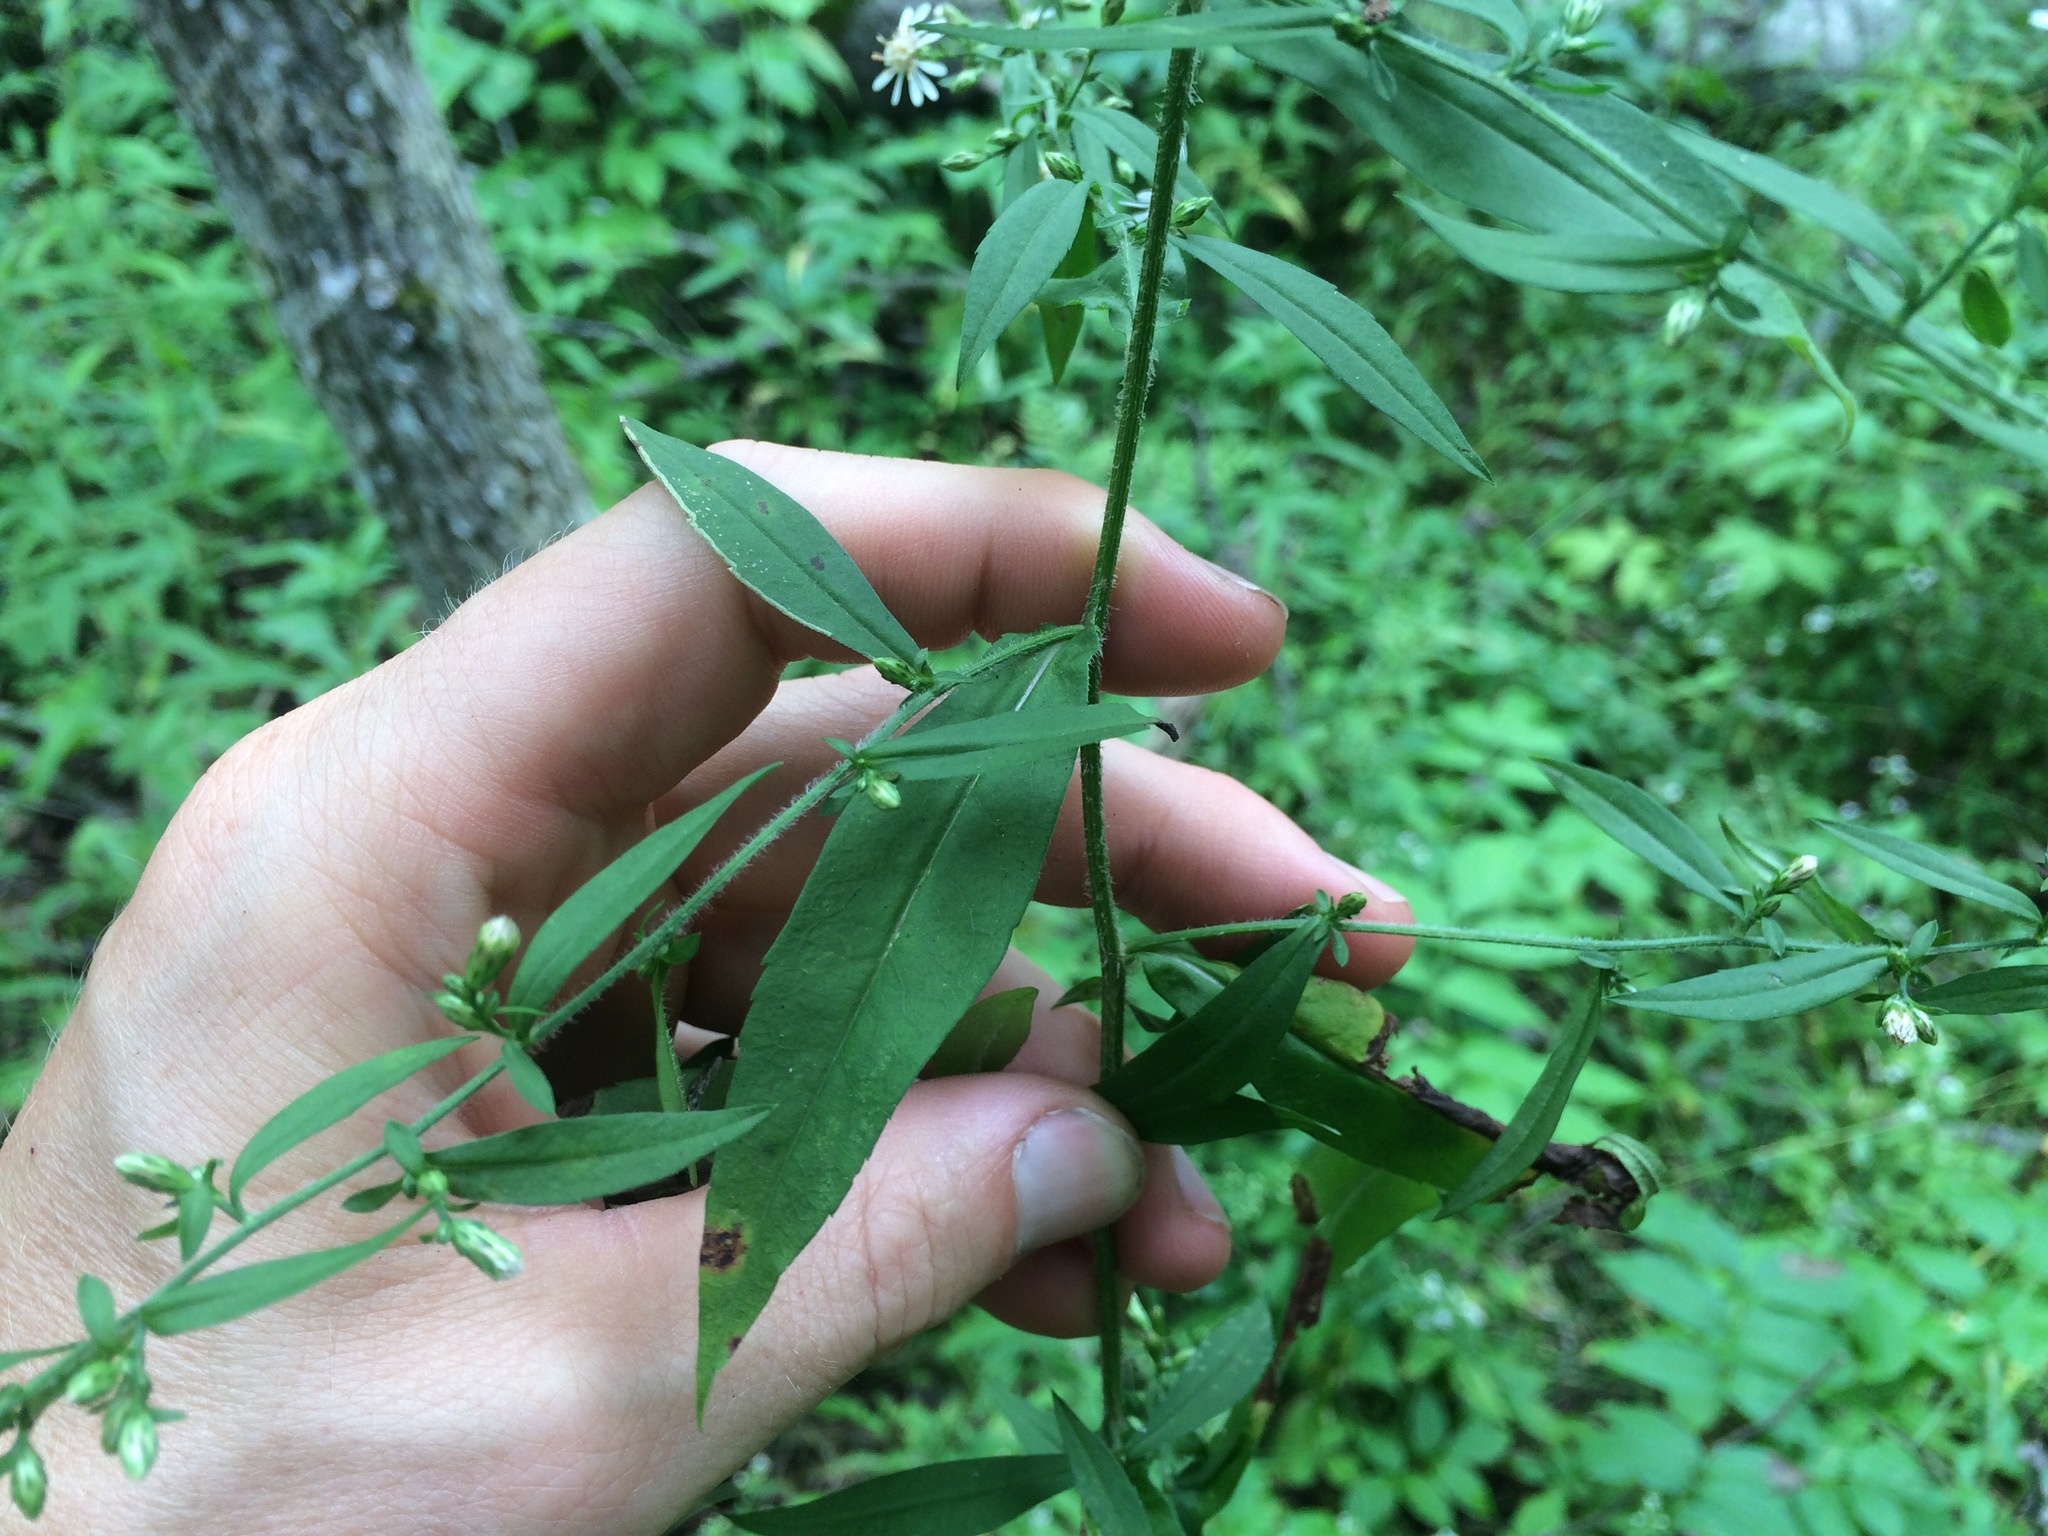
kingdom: Plantae
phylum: Tracheophyta
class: Magnoliopsida
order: Asterales
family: Asteraceae
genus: Symphyotrichum
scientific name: Symphyotrichum lateriflorum
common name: Calico aster
